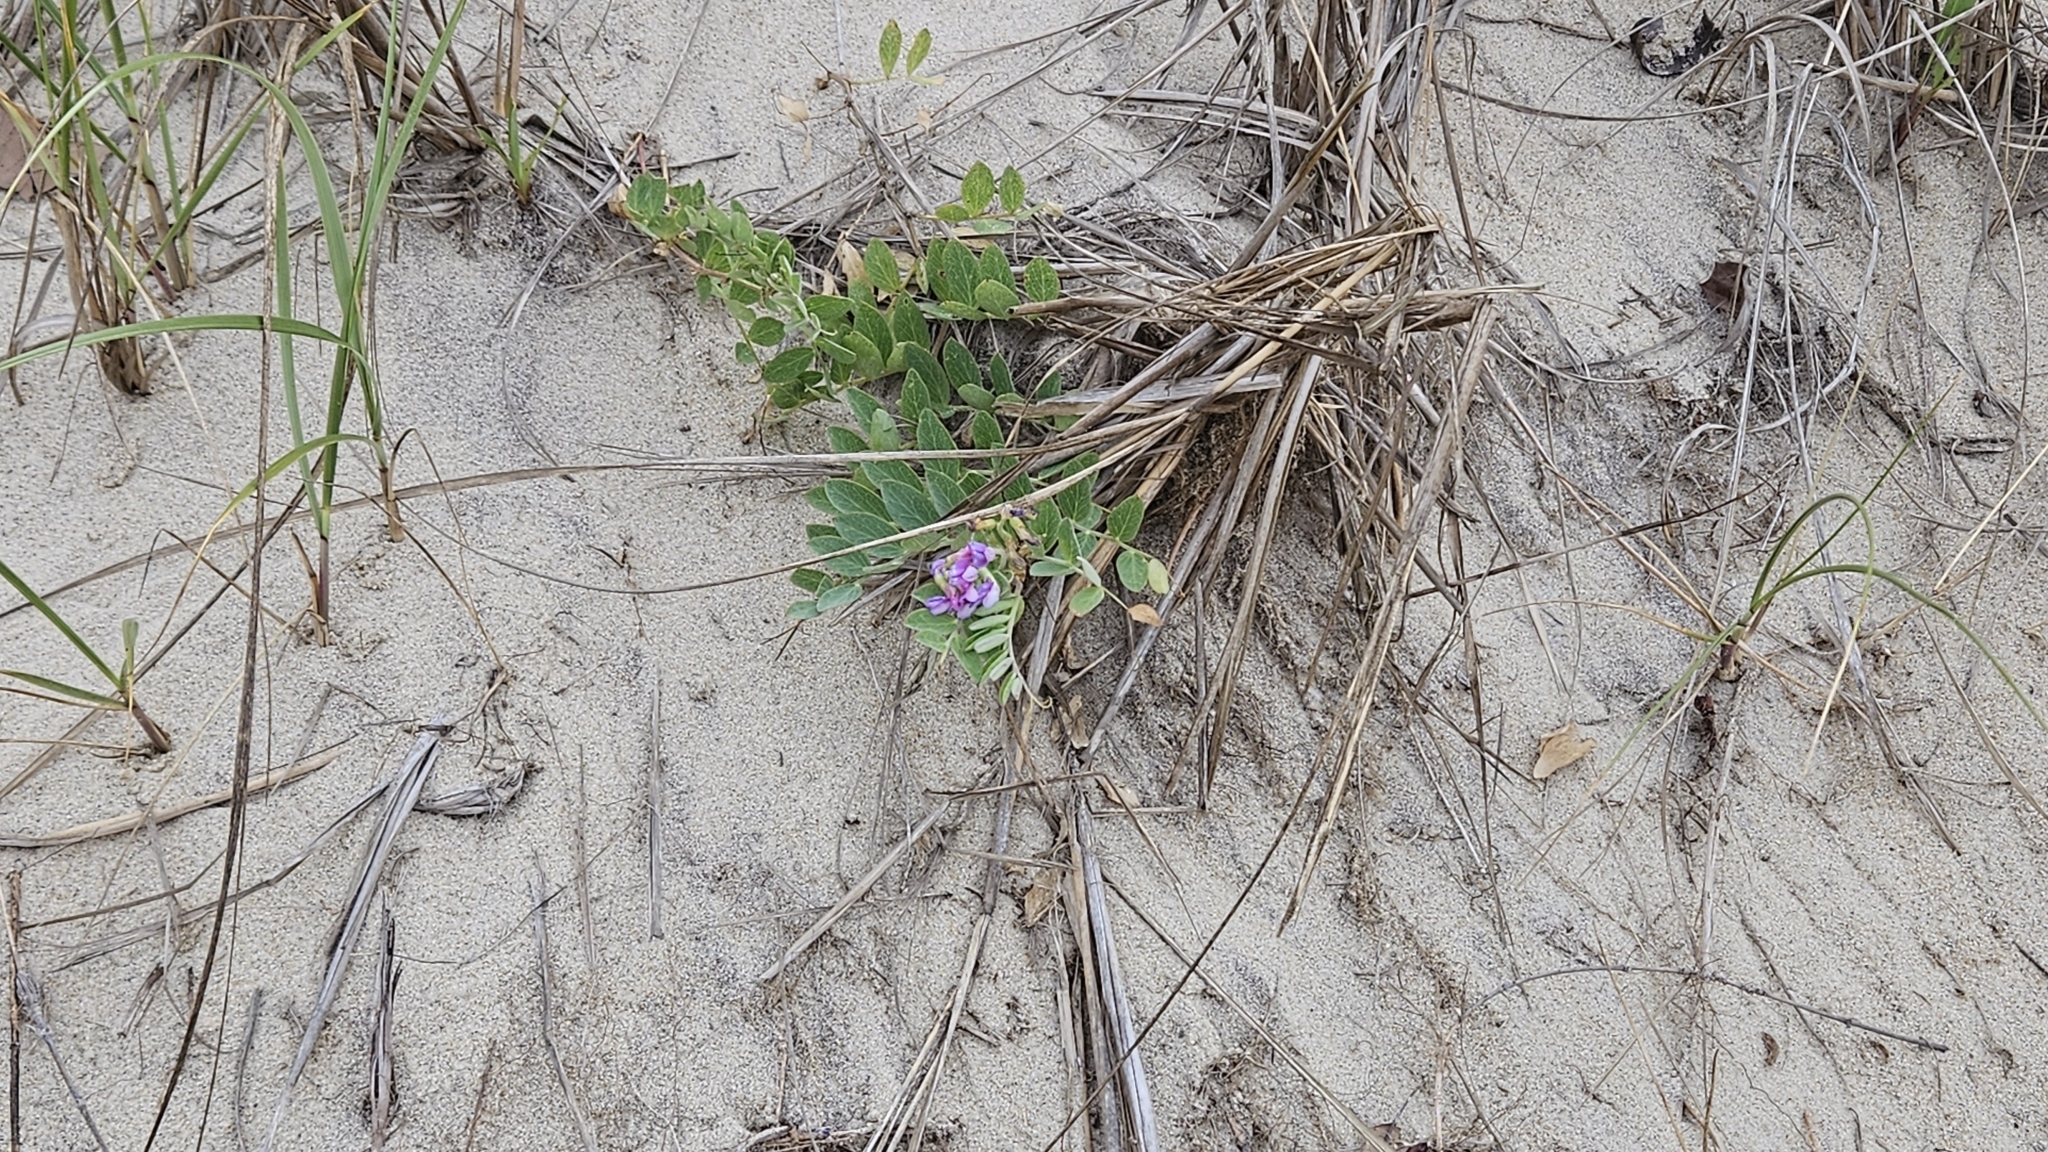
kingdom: Plantae
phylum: Tracheophyta
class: Magnoliopsida
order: Fabales
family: Fabaceae
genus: Lathyrus
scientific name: Lathyrus japonicus
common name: Sea pea
